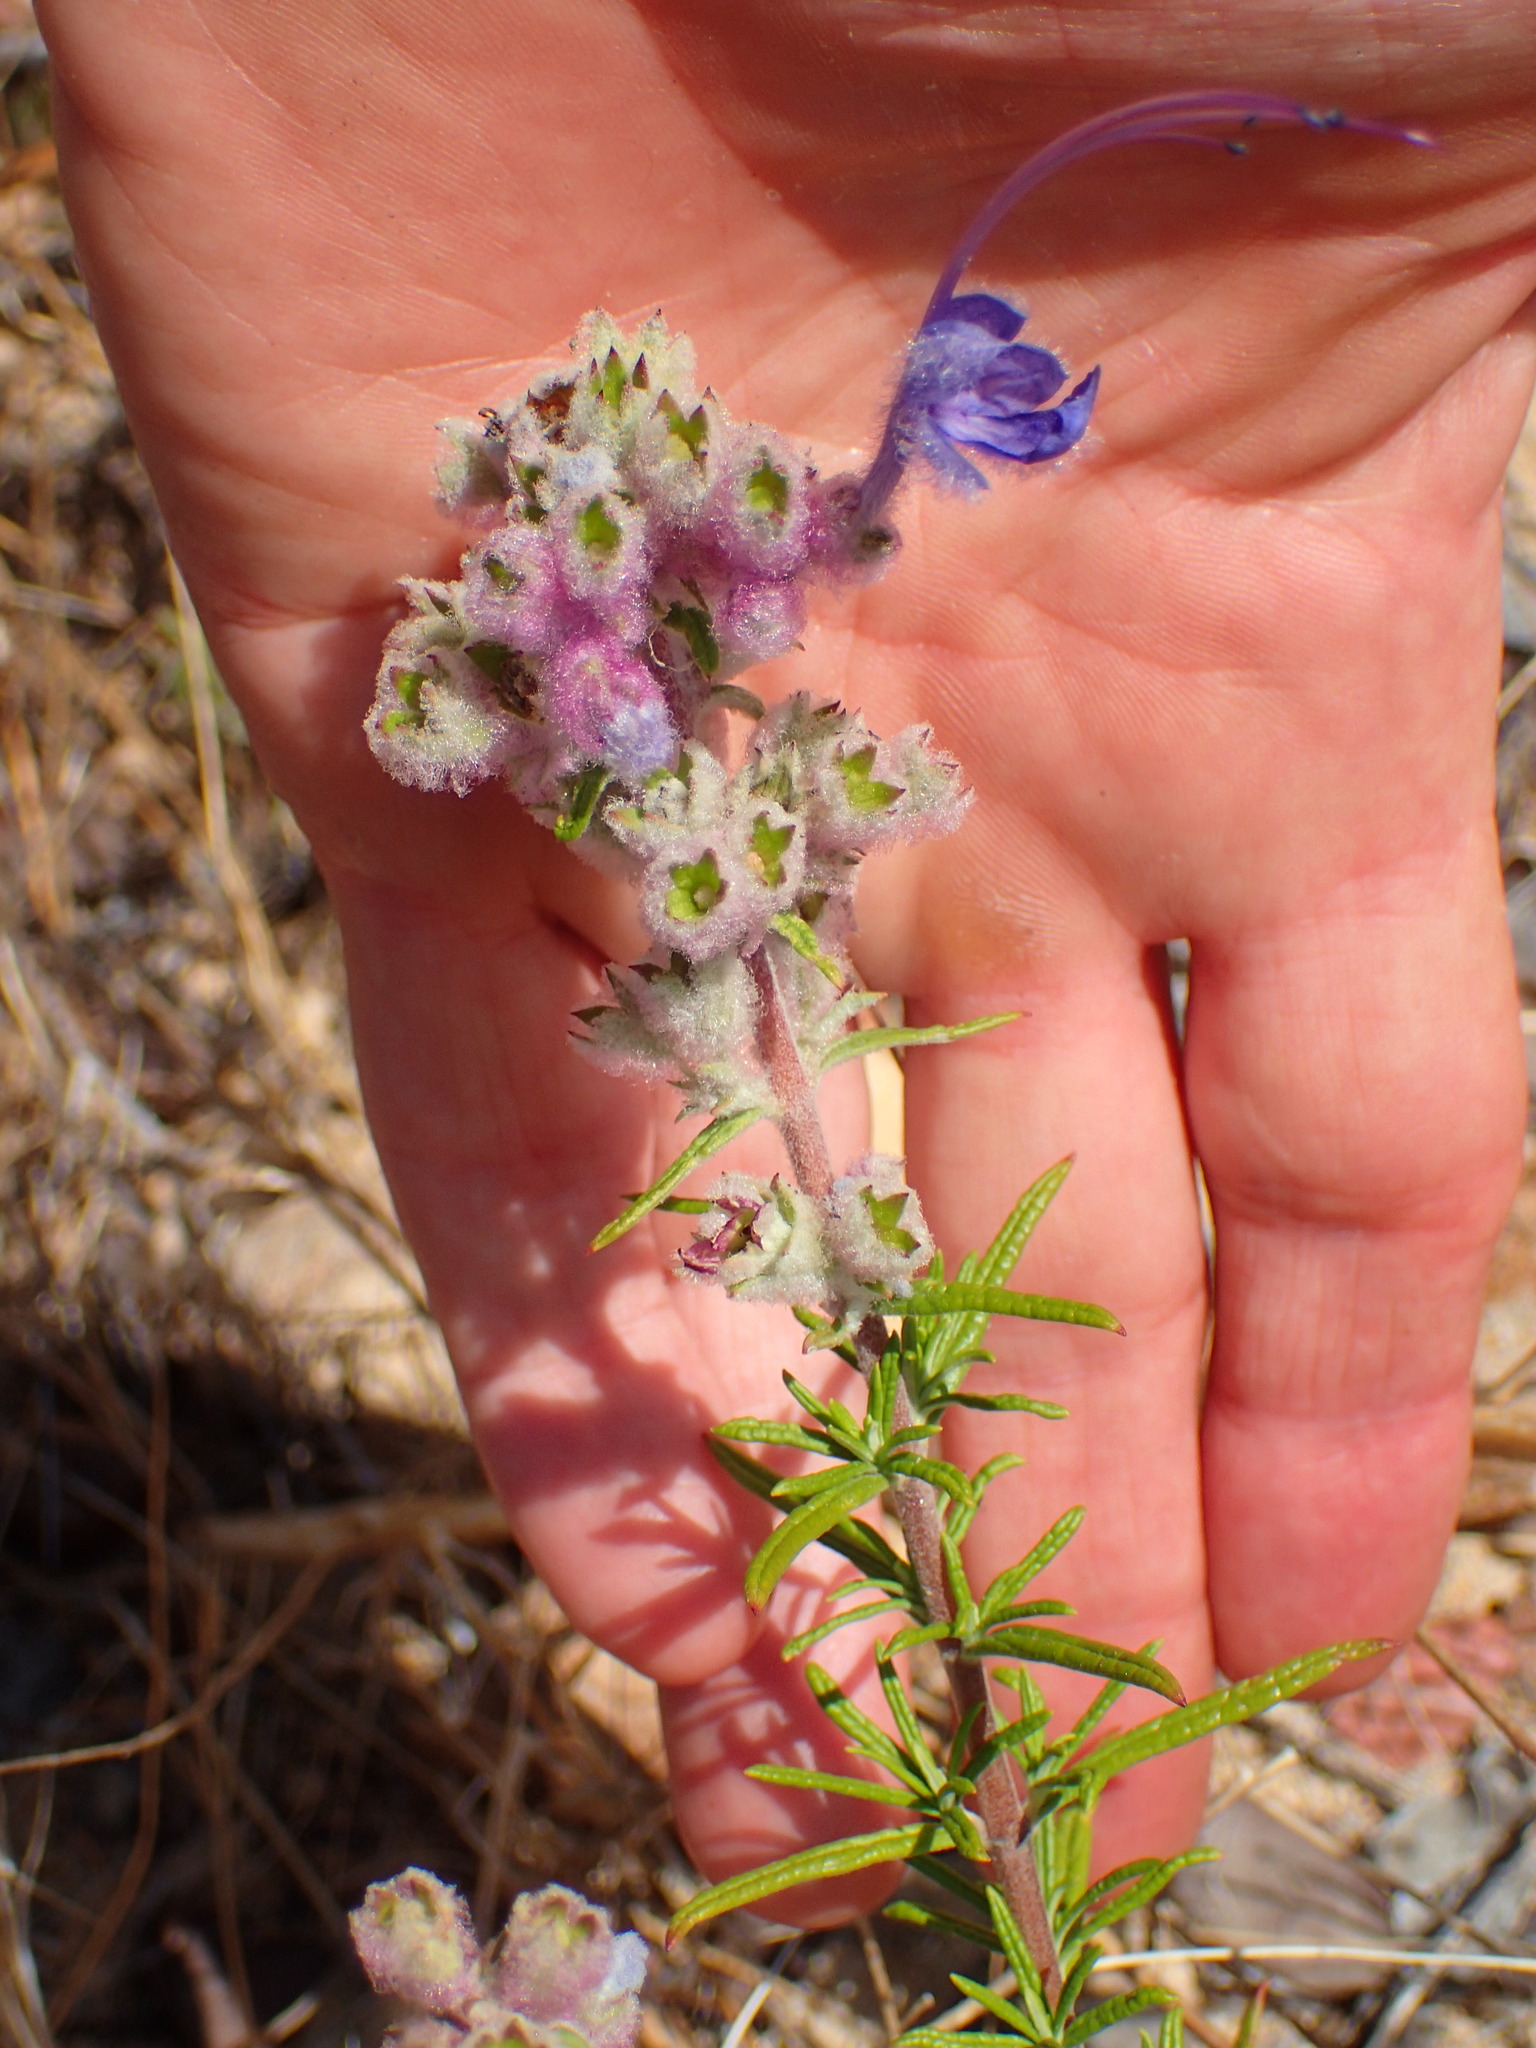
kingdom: Plantae
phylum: Tracheophyta
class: Magnoliopsida
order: Lamiales
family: Lamiaceae
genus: Trichostema
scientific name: Trichostema lanatum
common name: Woolly bluecurls
